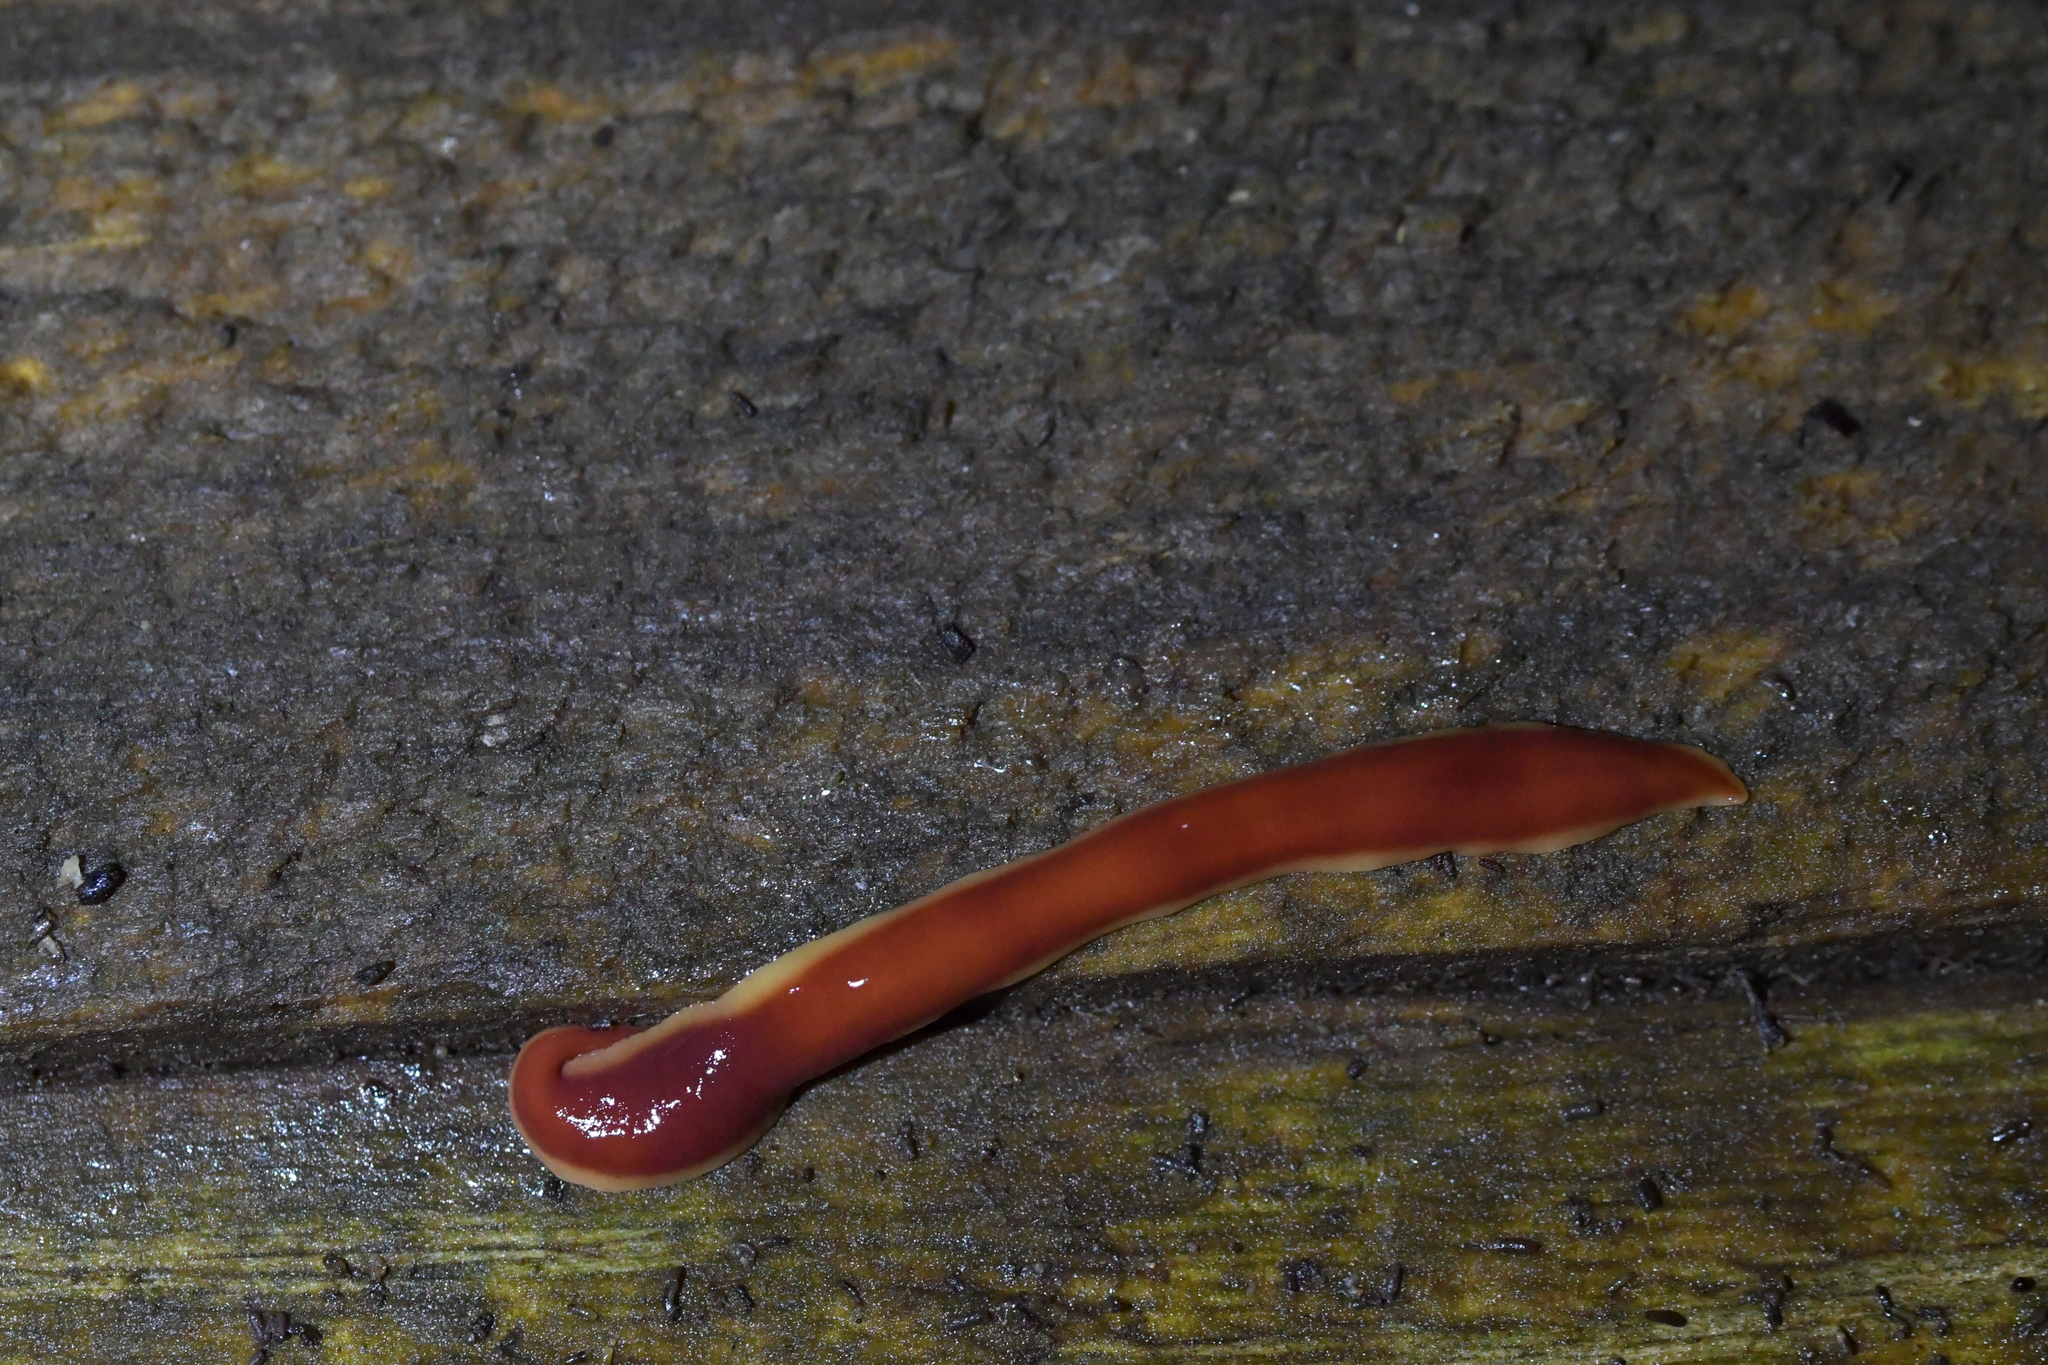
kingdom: Animalia
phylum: Platyhelminthes
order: Tricladida
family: Geoplanidae
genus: Arthurdendyus
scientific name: Arthurdendyus testaceus
